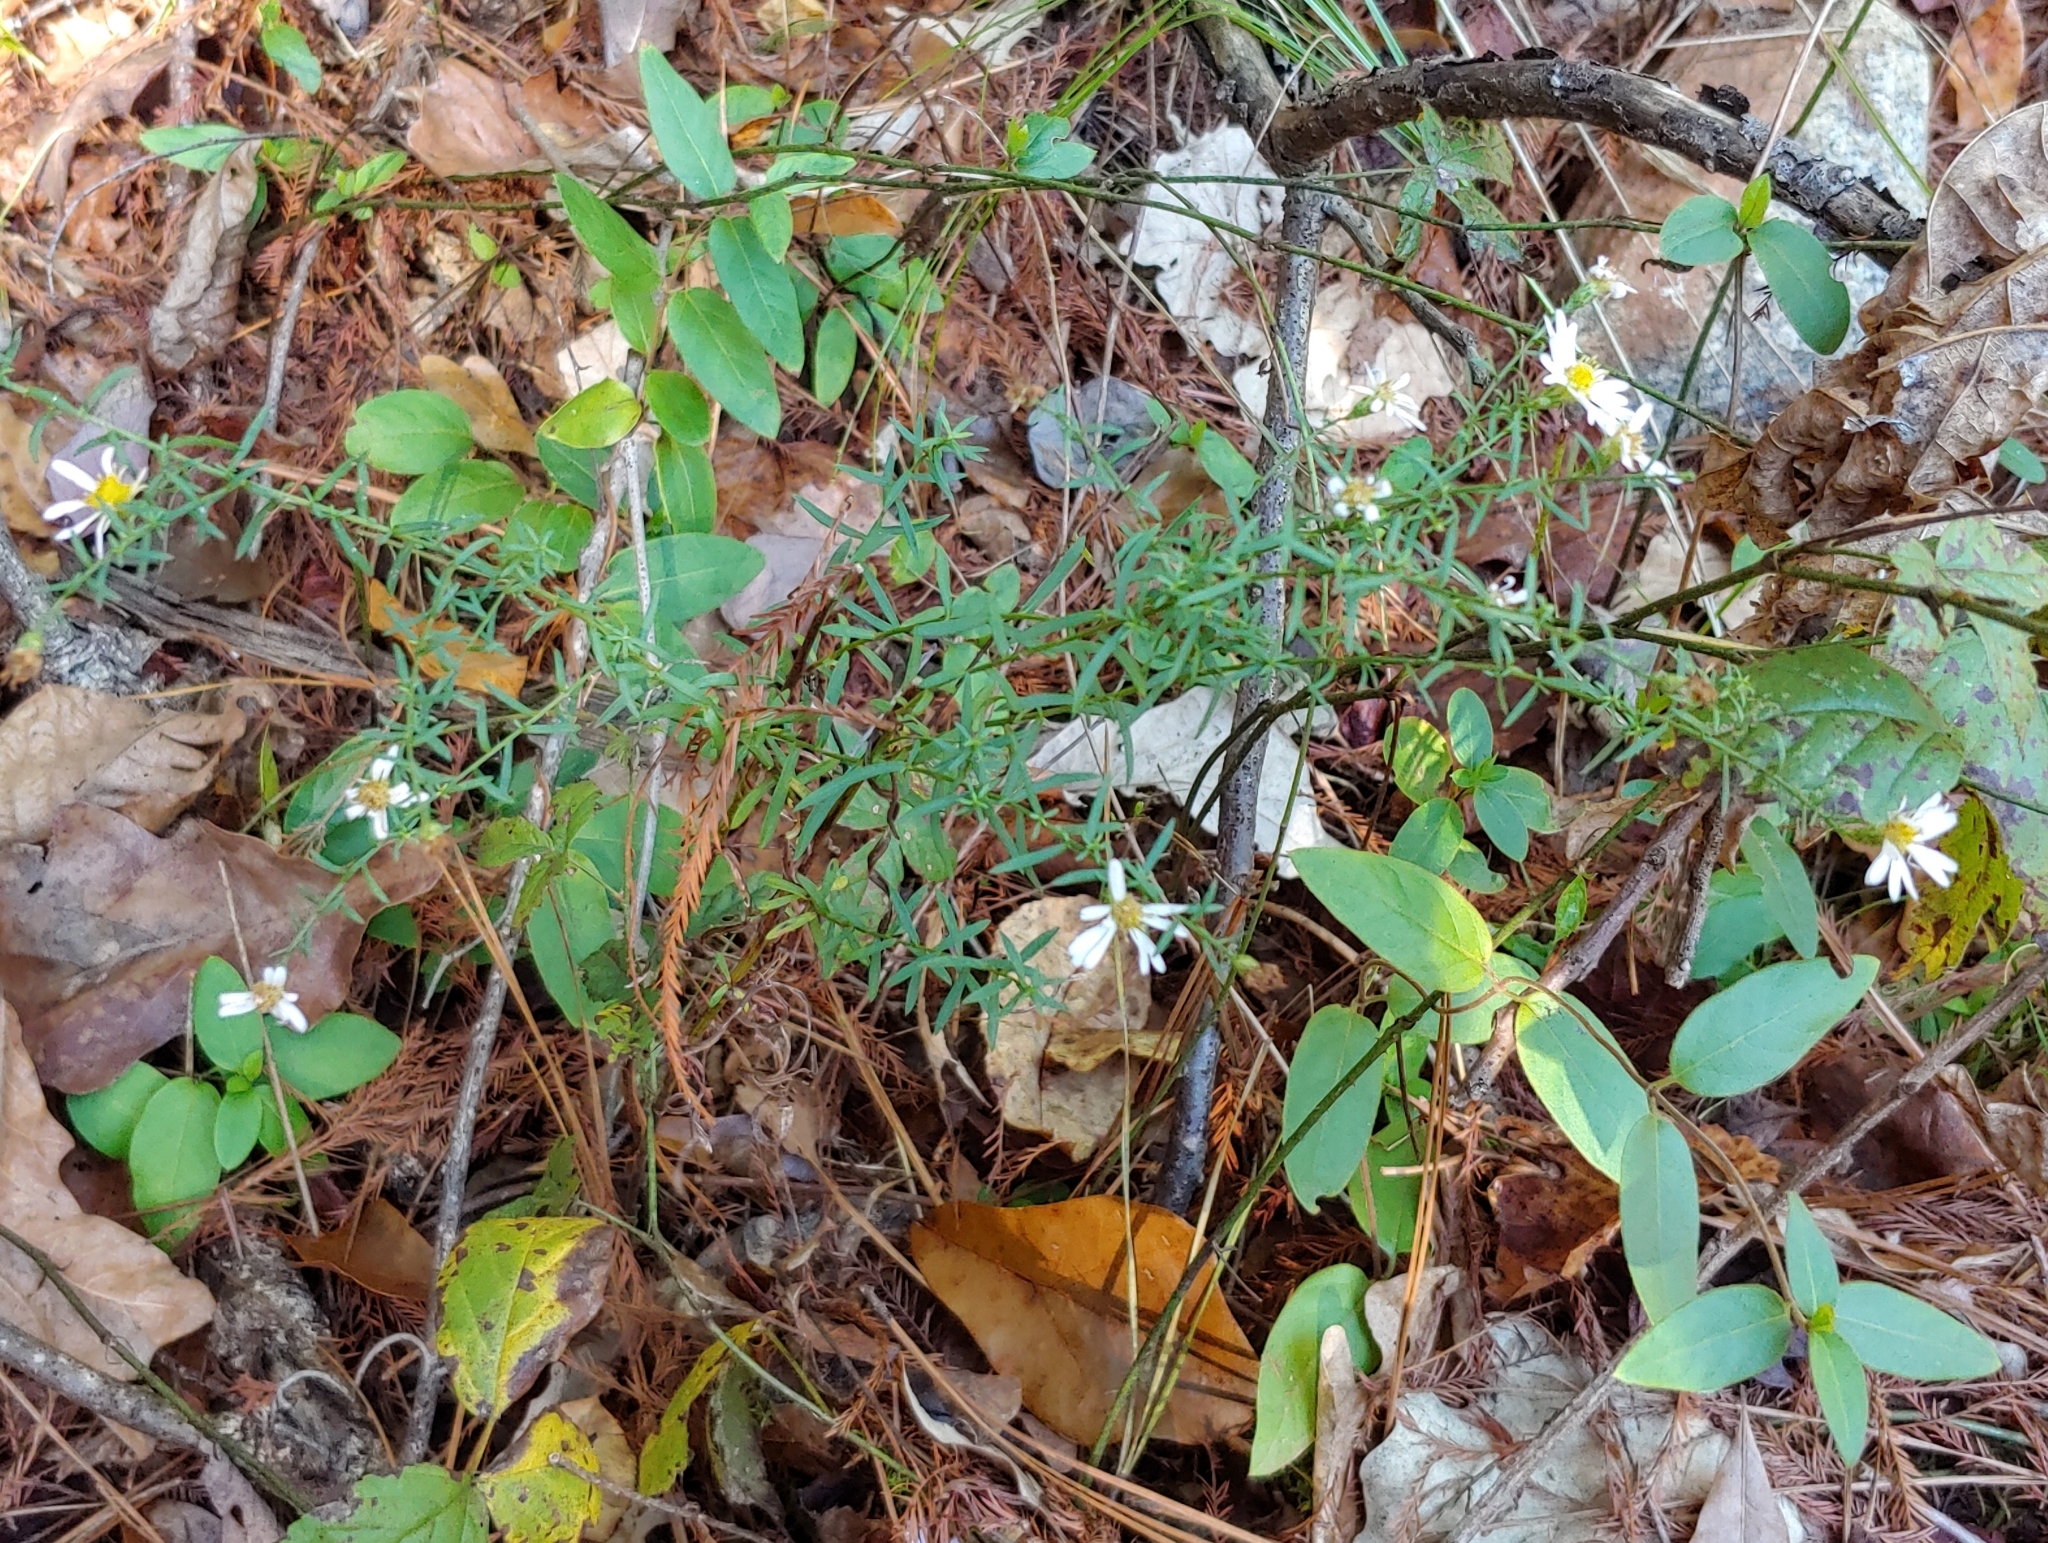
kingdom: Plantae
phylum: Tracheophyta
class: Magnoliopsida
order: Asterales
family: Asteraceae
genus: Symphyotrichum
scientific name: Symphyotrichum lanceolatum
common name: Panicled aster
